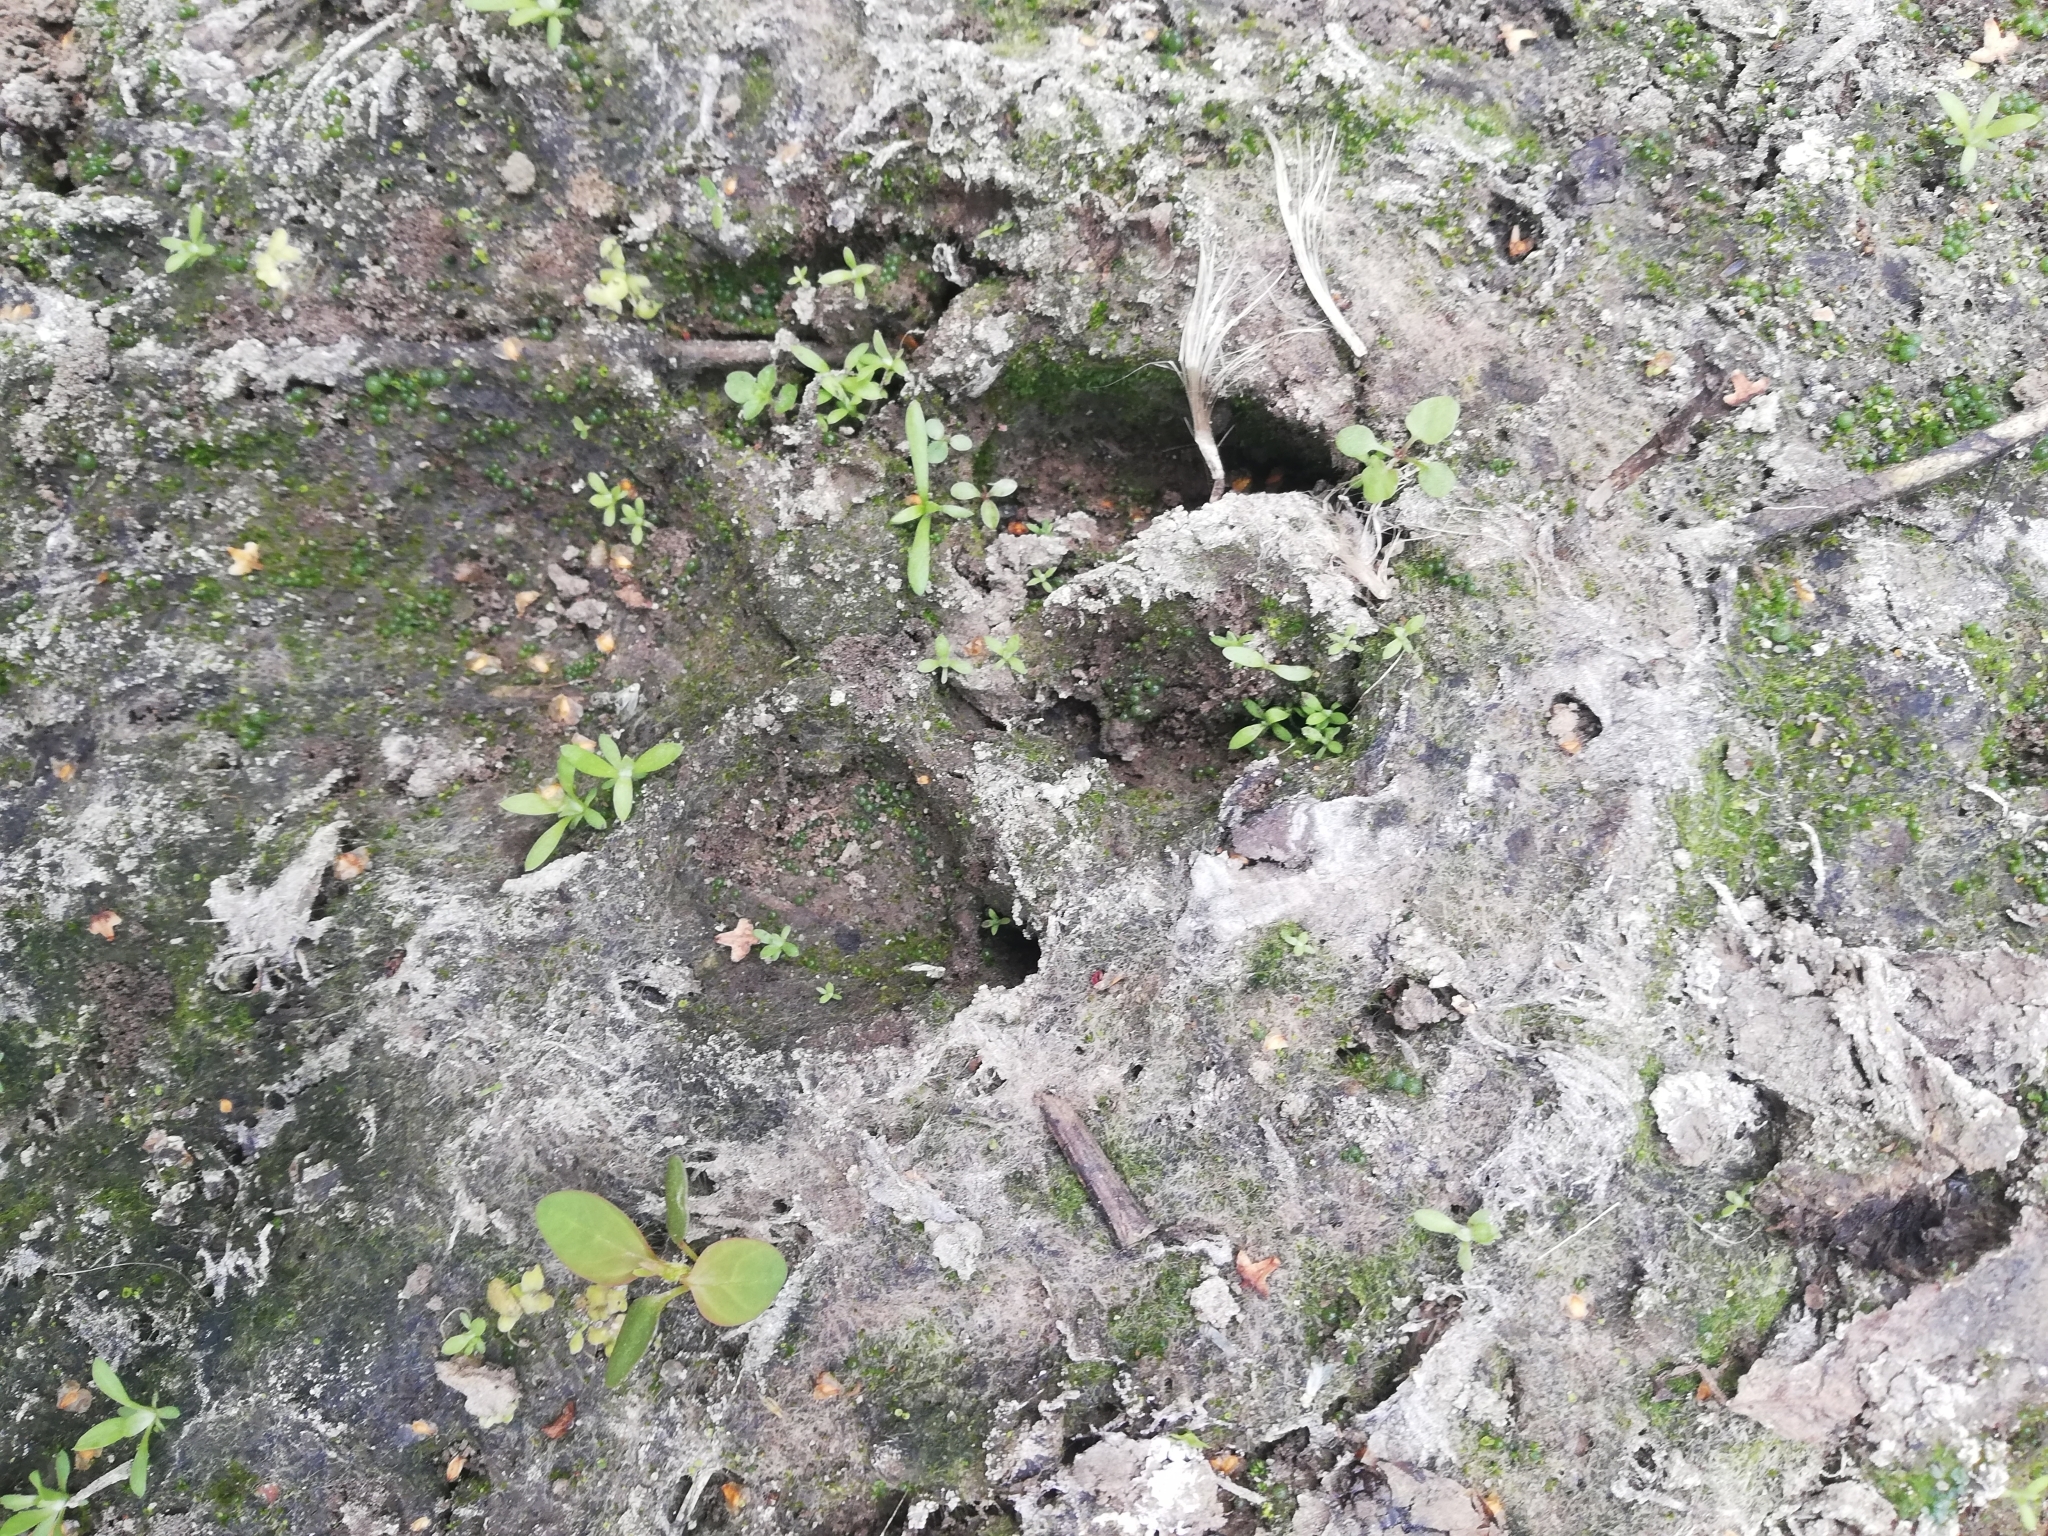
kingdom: Animalia
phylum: Chordata
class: Mammalia
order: Carnivora
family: Canidae
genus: Canis
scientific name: Canis lupus
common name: Gray wolf
